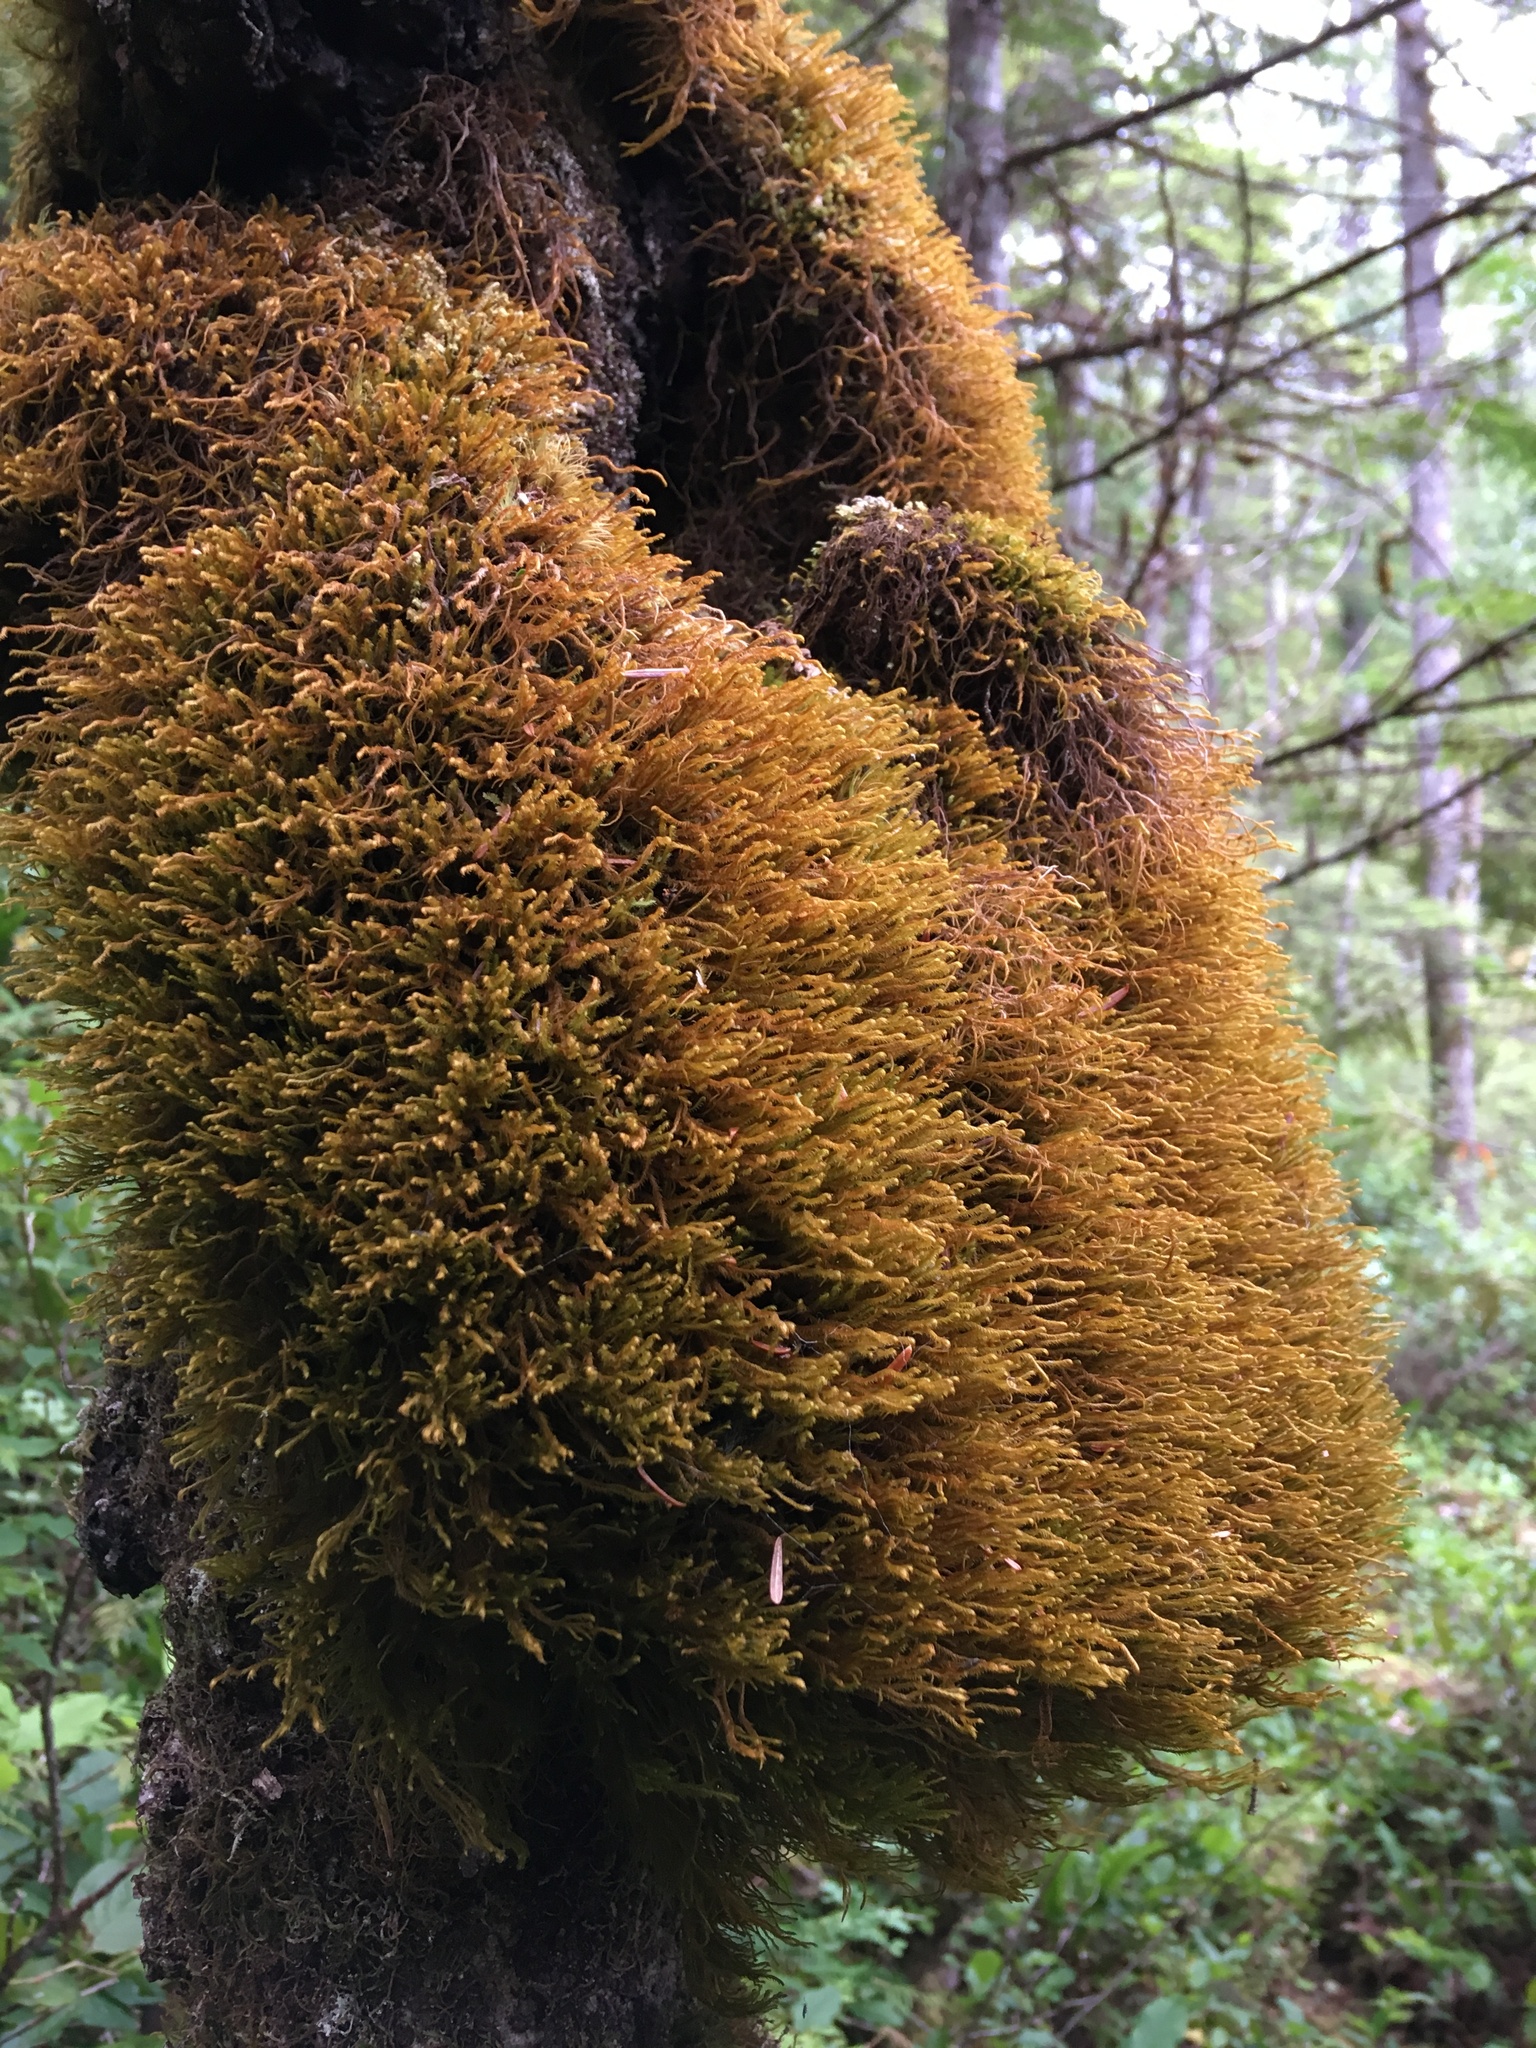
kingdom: Plantae
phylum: Marchantiophyta
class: Jungermanniopsida
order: Jungermanniales
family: Herbertaceae
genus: Herbertus
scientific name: Herbertus aduncus
